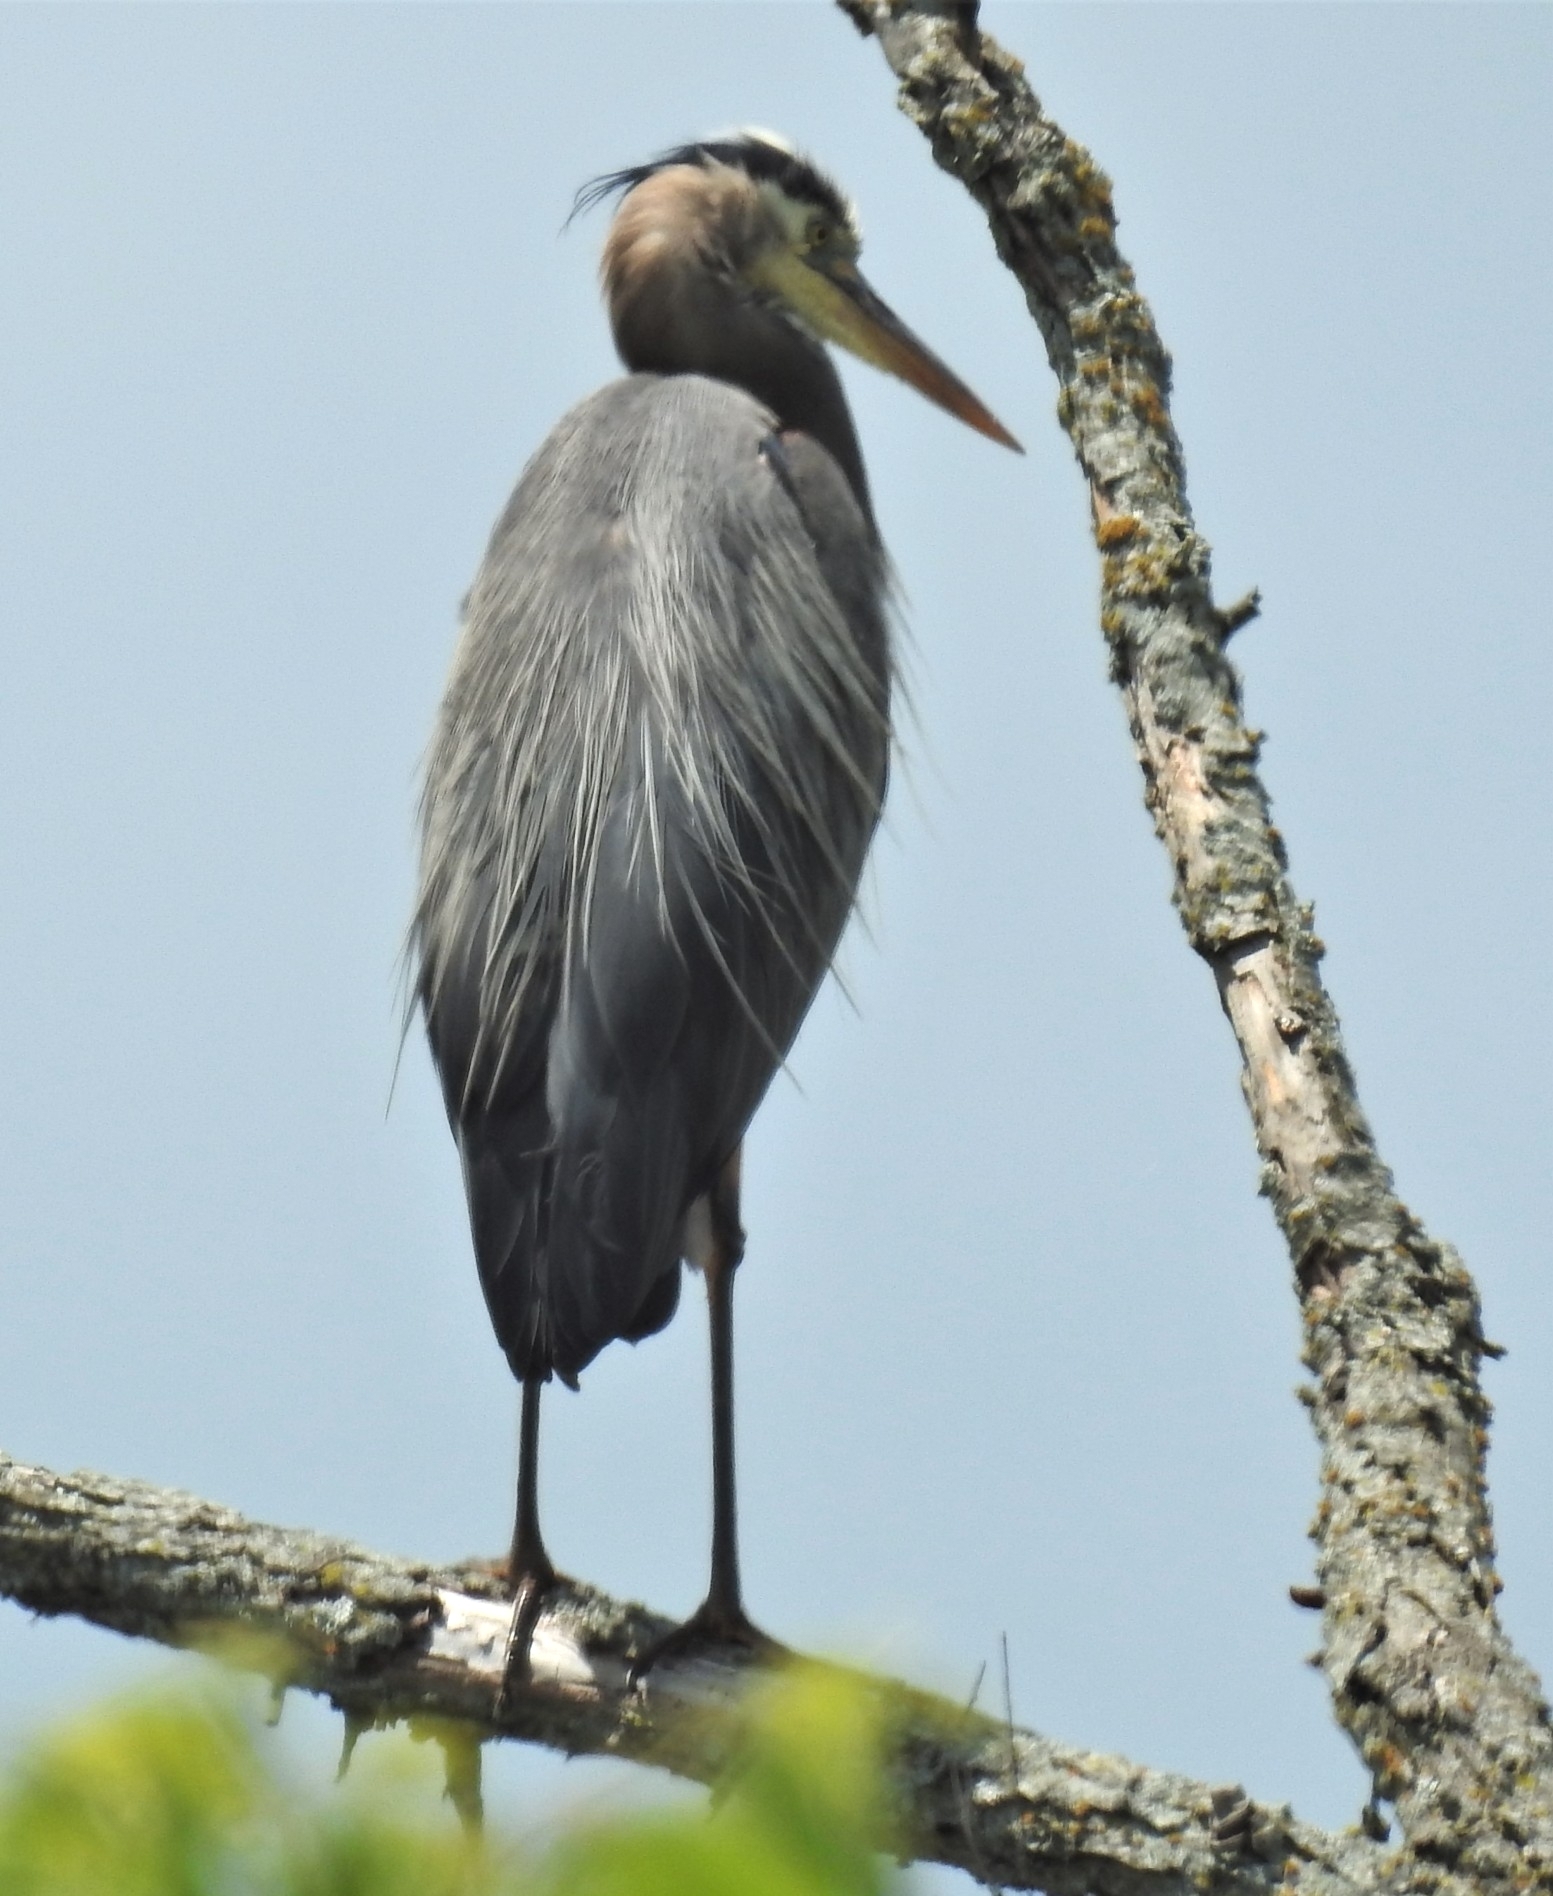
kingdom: Animalia
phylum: Chordata
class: Aves
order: Pelecaniformes
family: Ardeidae
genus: Ardea
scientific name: Ardea herodias
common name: Great blue heron
